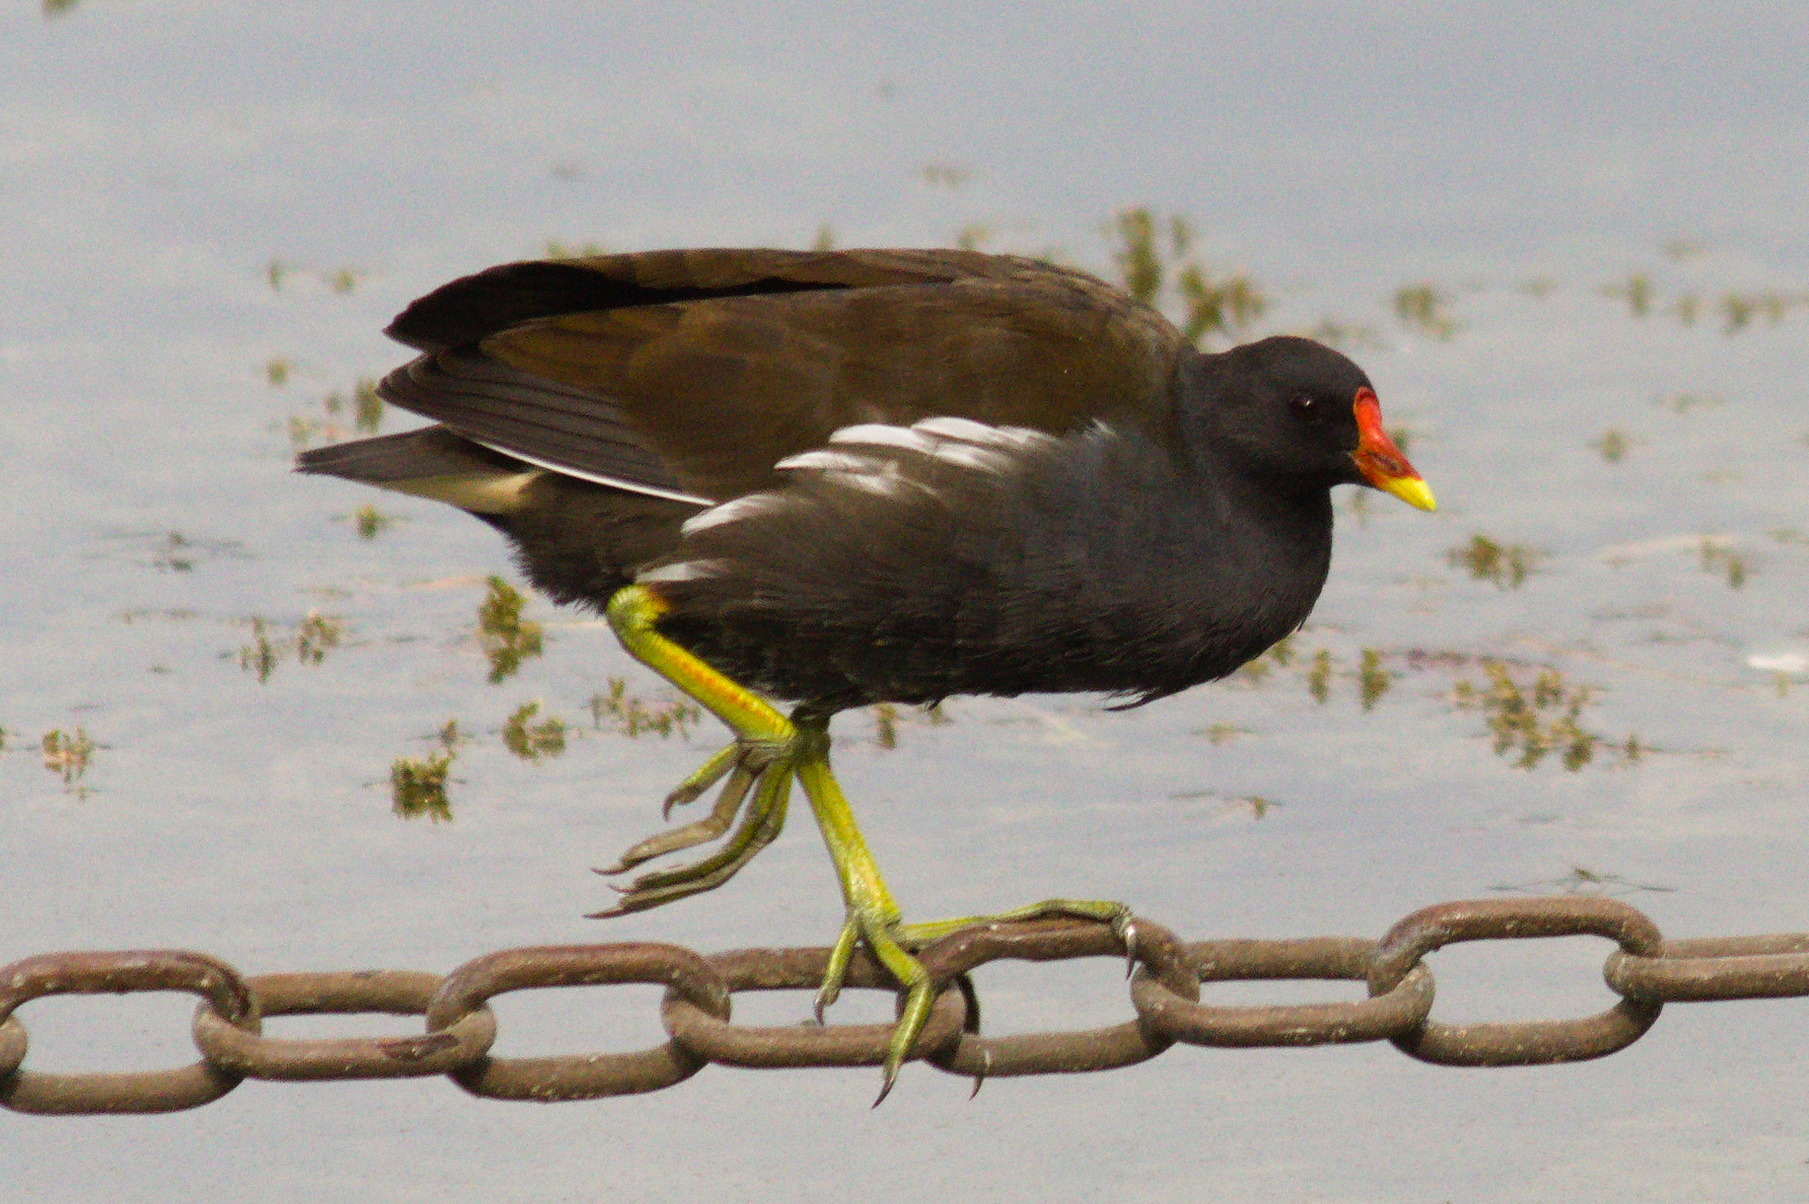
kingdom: Animalia
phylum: Chordata
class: Aves
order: Gruiformes
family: Rallidae
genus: Gallinula
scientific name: Gallinula chloropus
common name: Common moorhen
